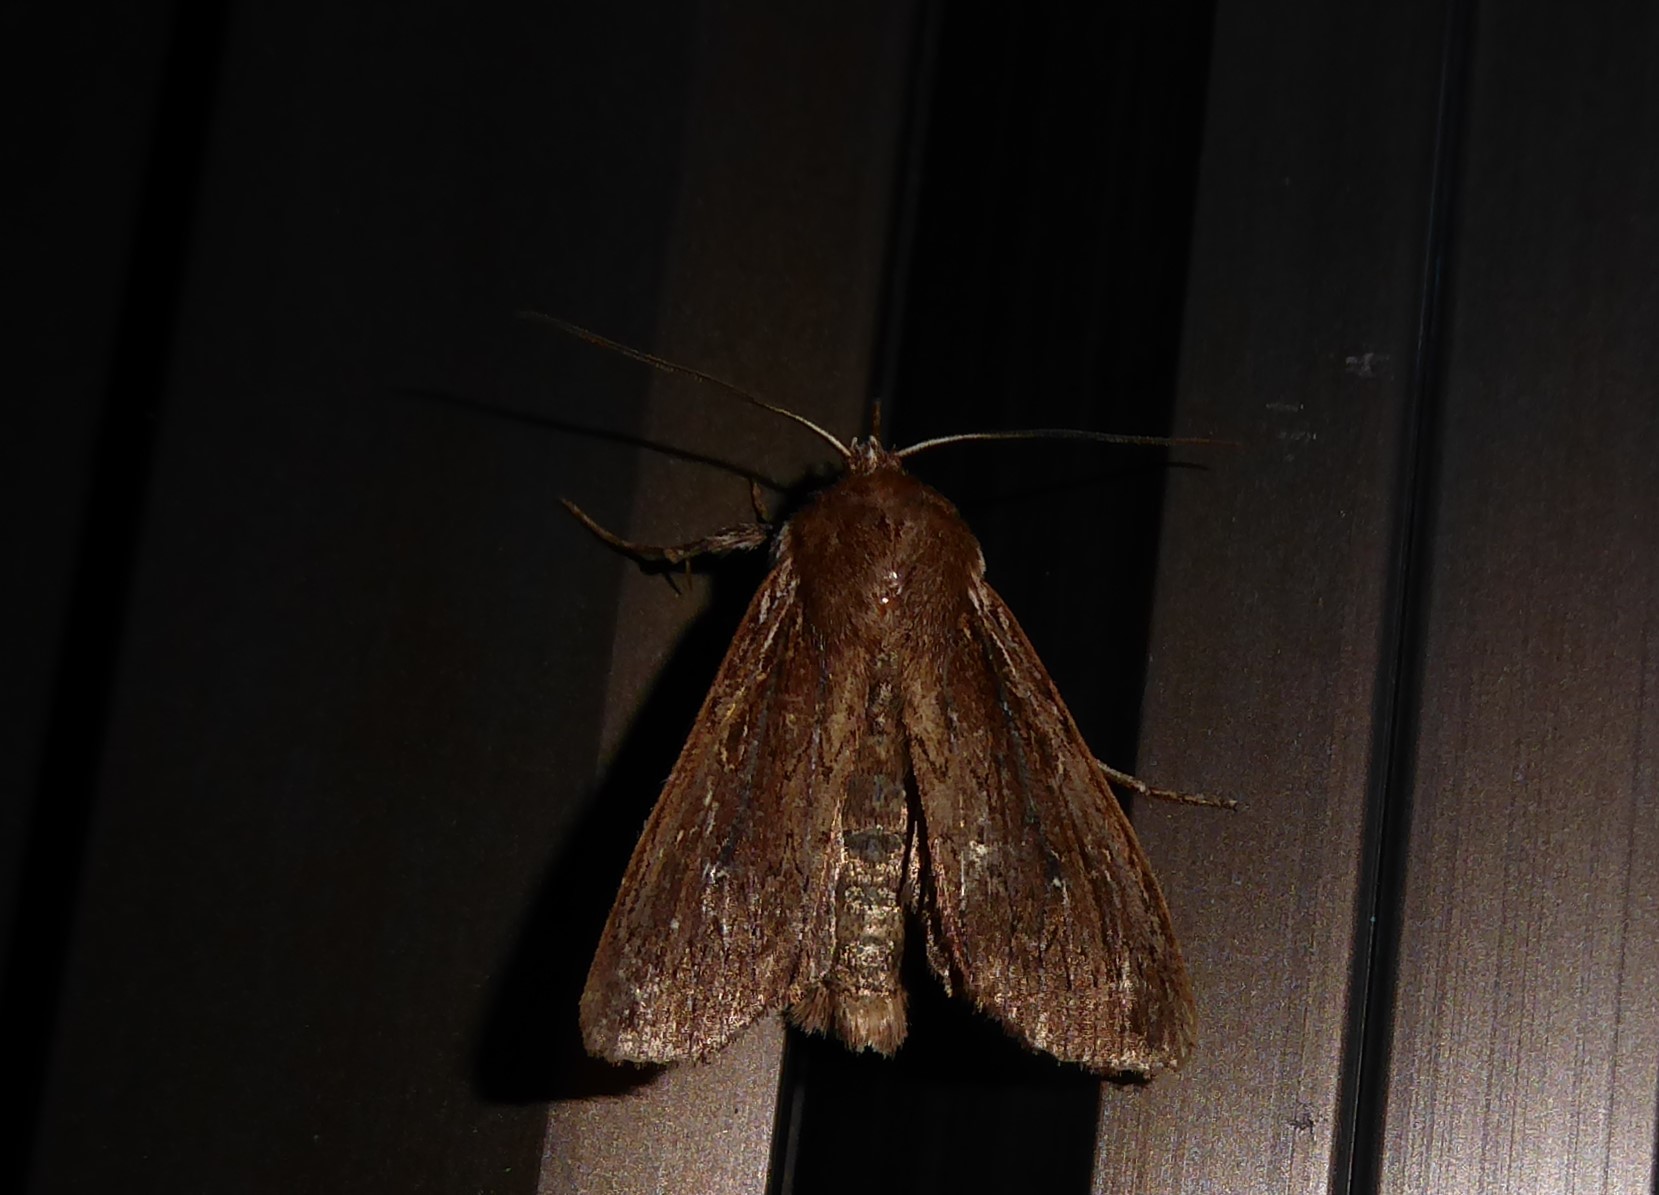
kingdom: Animalia
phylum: Arthropoda
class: Insecta
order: Lepidoptera
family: Noctuidae
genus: Ichneutica
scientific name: Ichneutica
